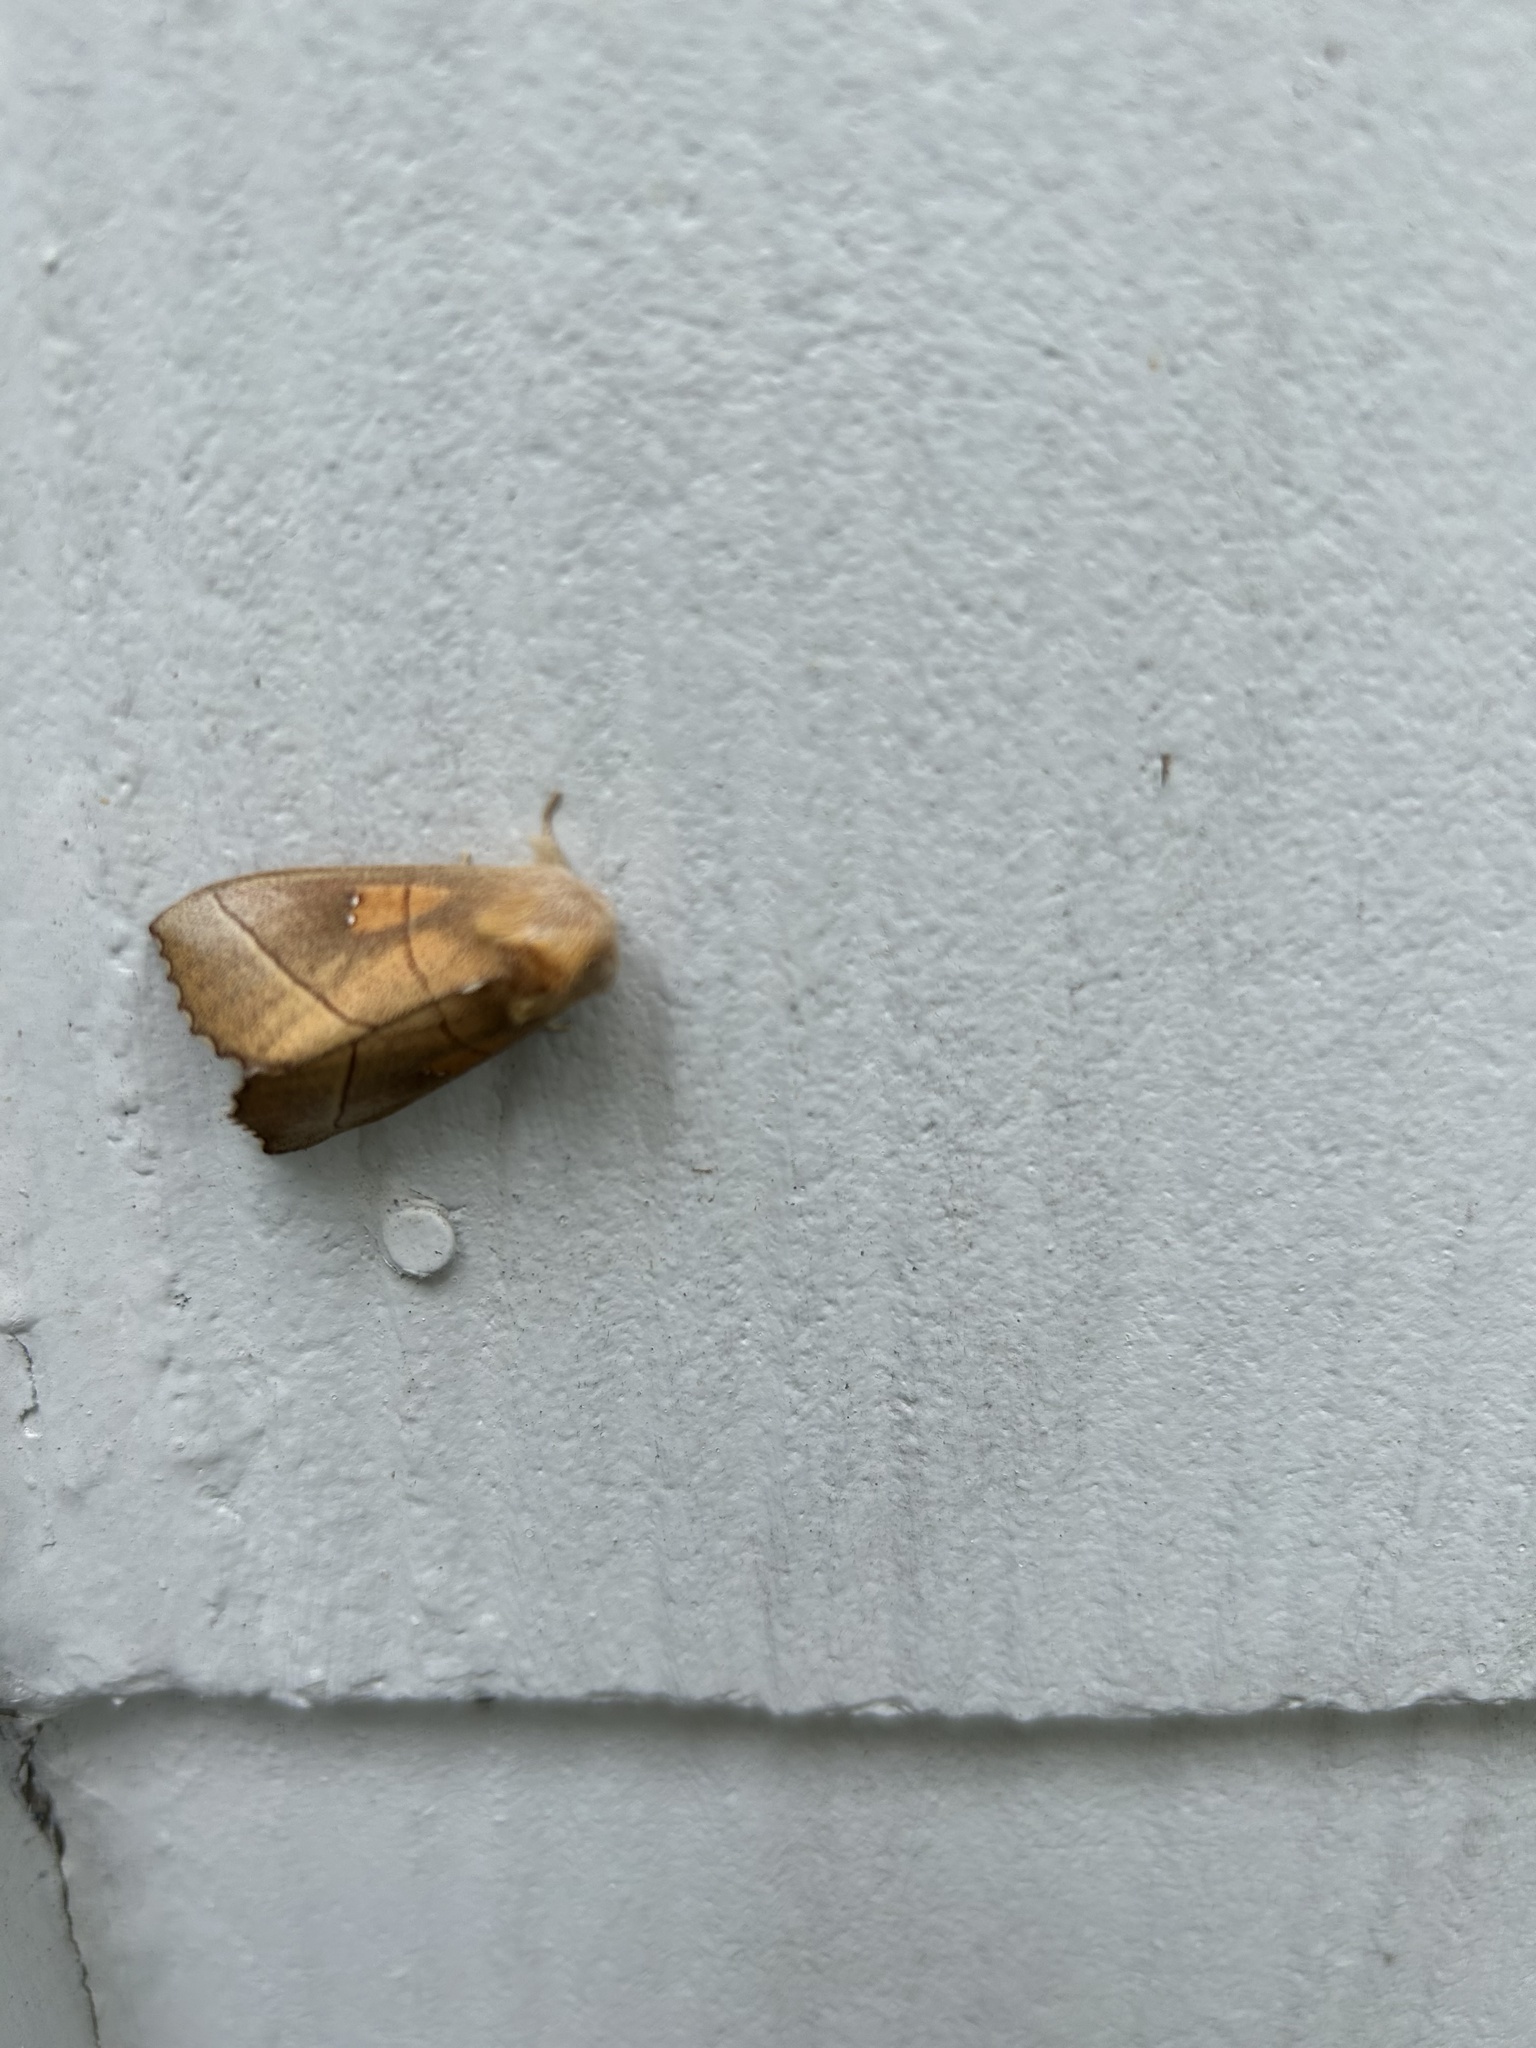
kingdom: Animalia
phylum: Arthropoda
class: Insecta
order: Lepidoptera
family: Notodontidae
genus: Nadata
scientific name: Nadata gibbosa
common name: White-dotted prominent
